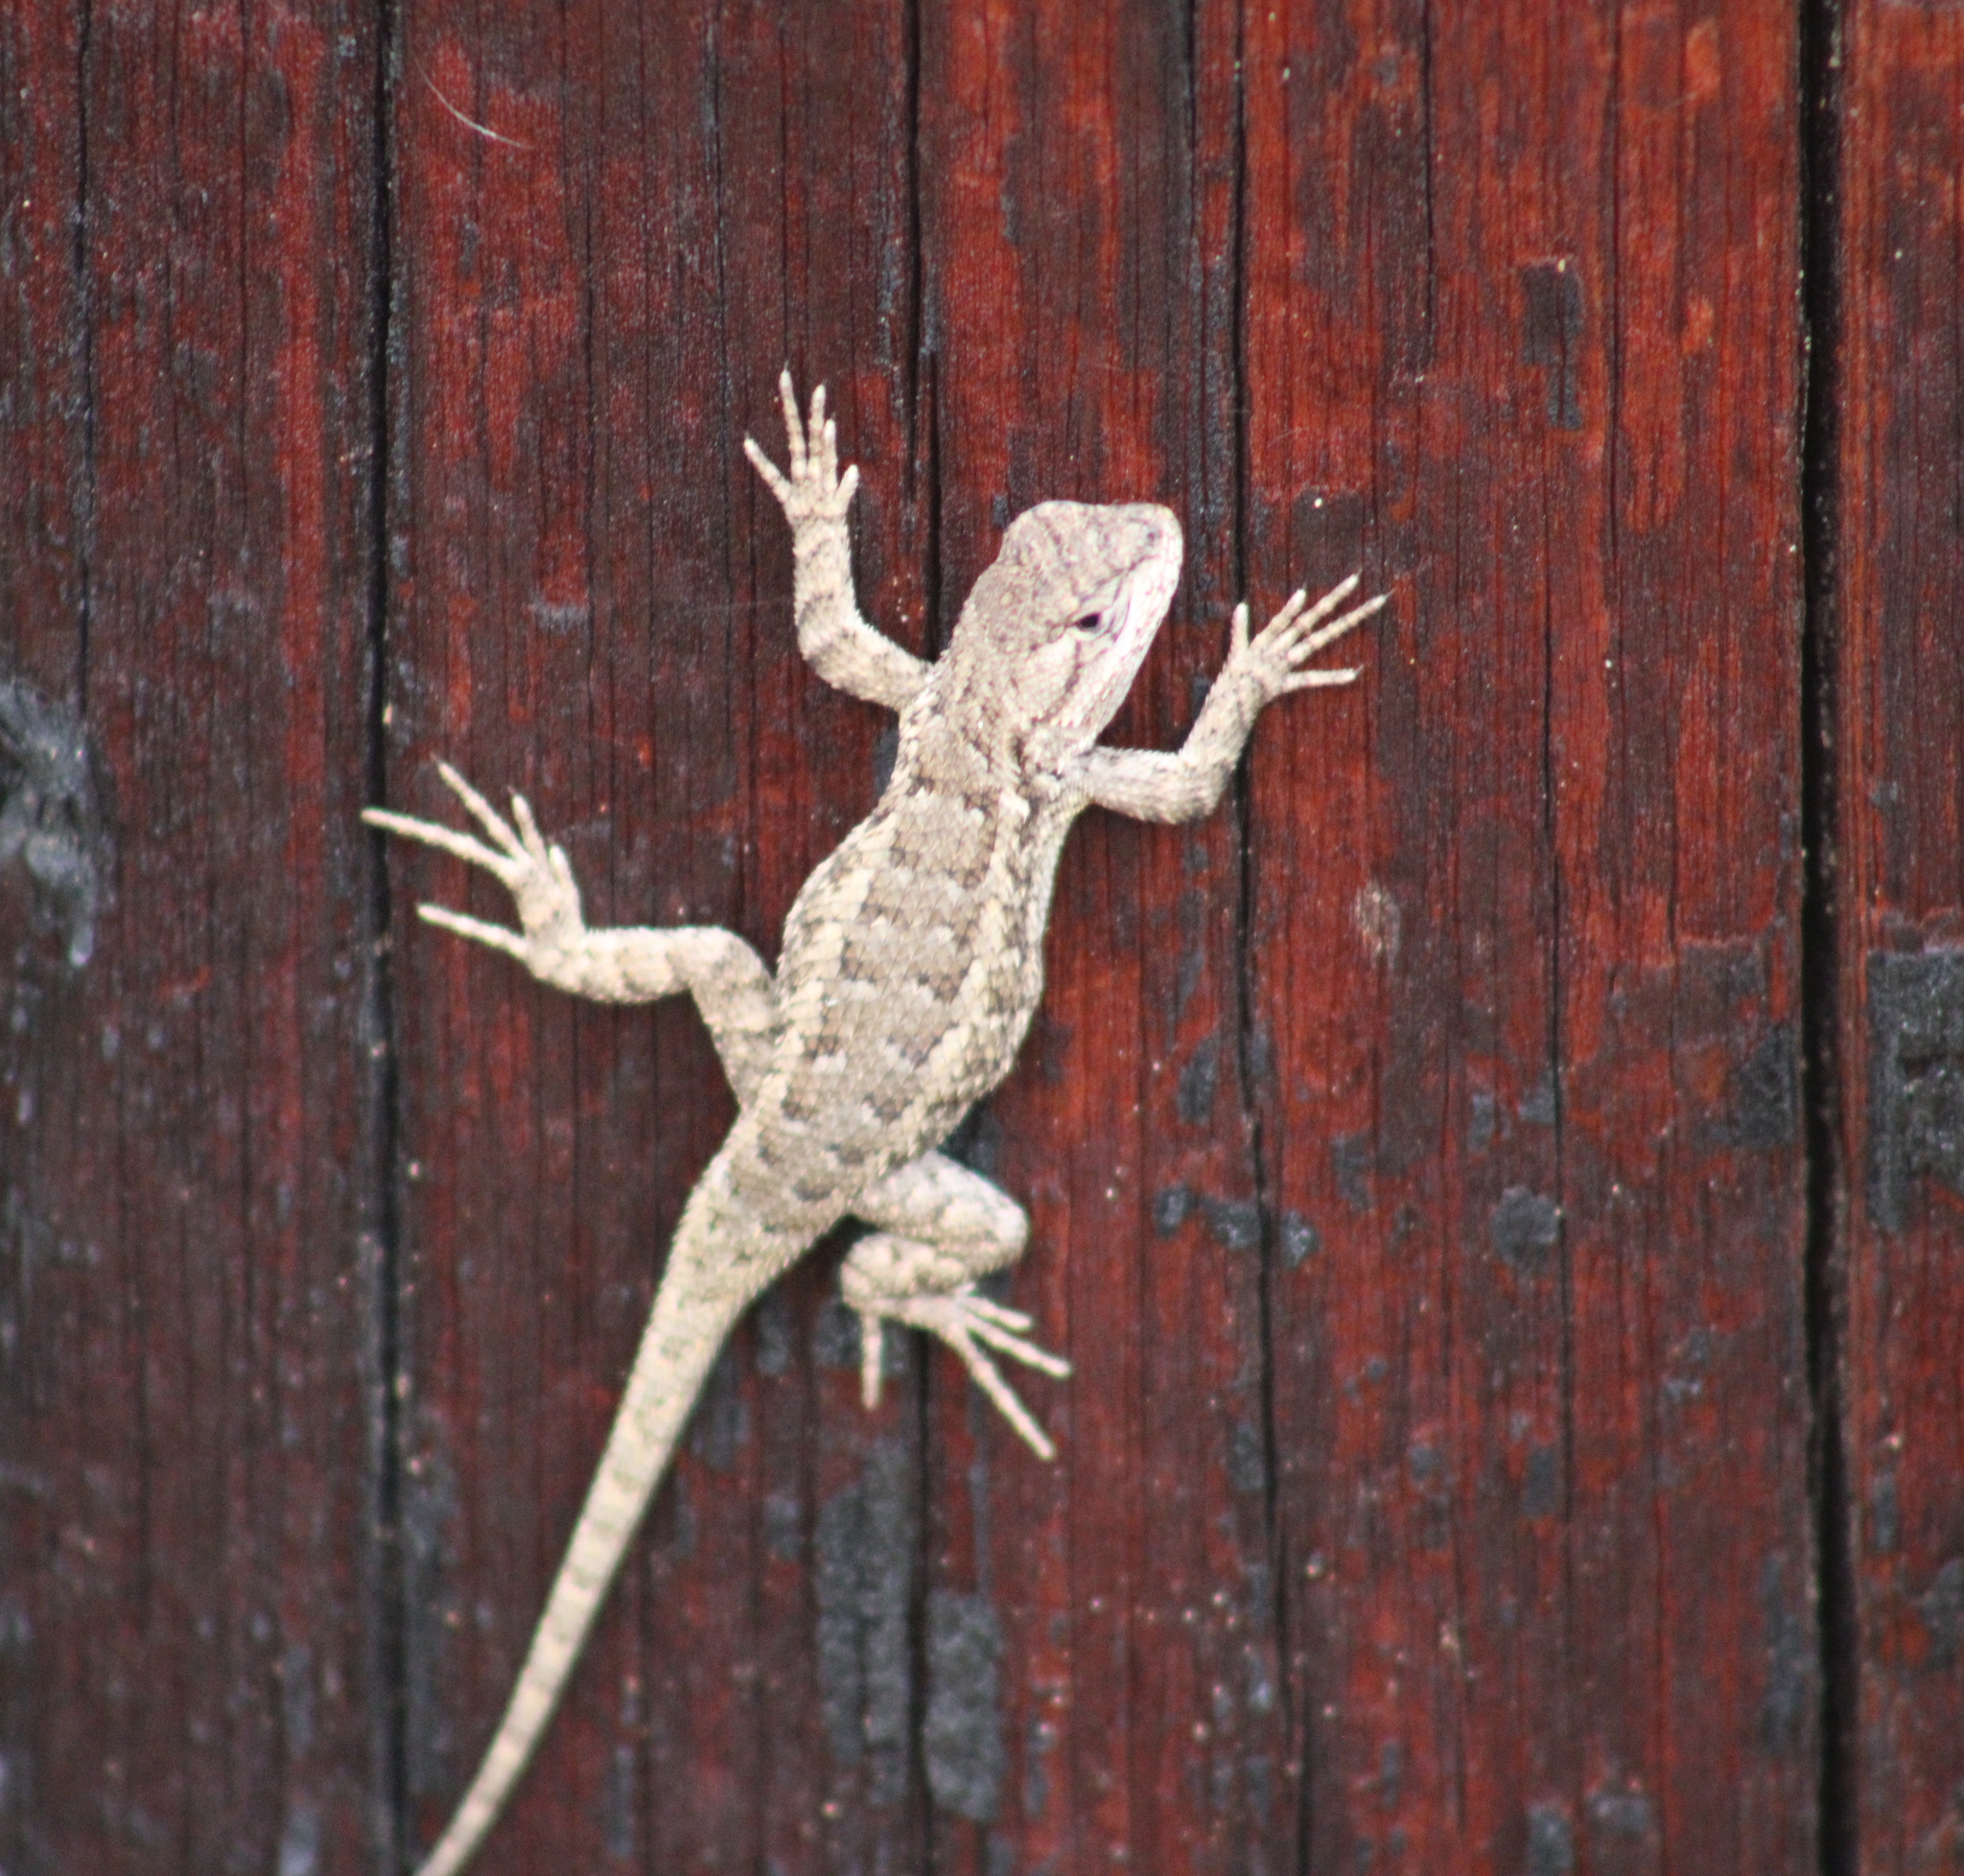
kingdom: Animalia
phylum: Chordata
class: Squamata
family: Phrynosomatidae
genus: Sceloporus
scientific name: Sceloporus occidentalis
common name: Western fence lizard
